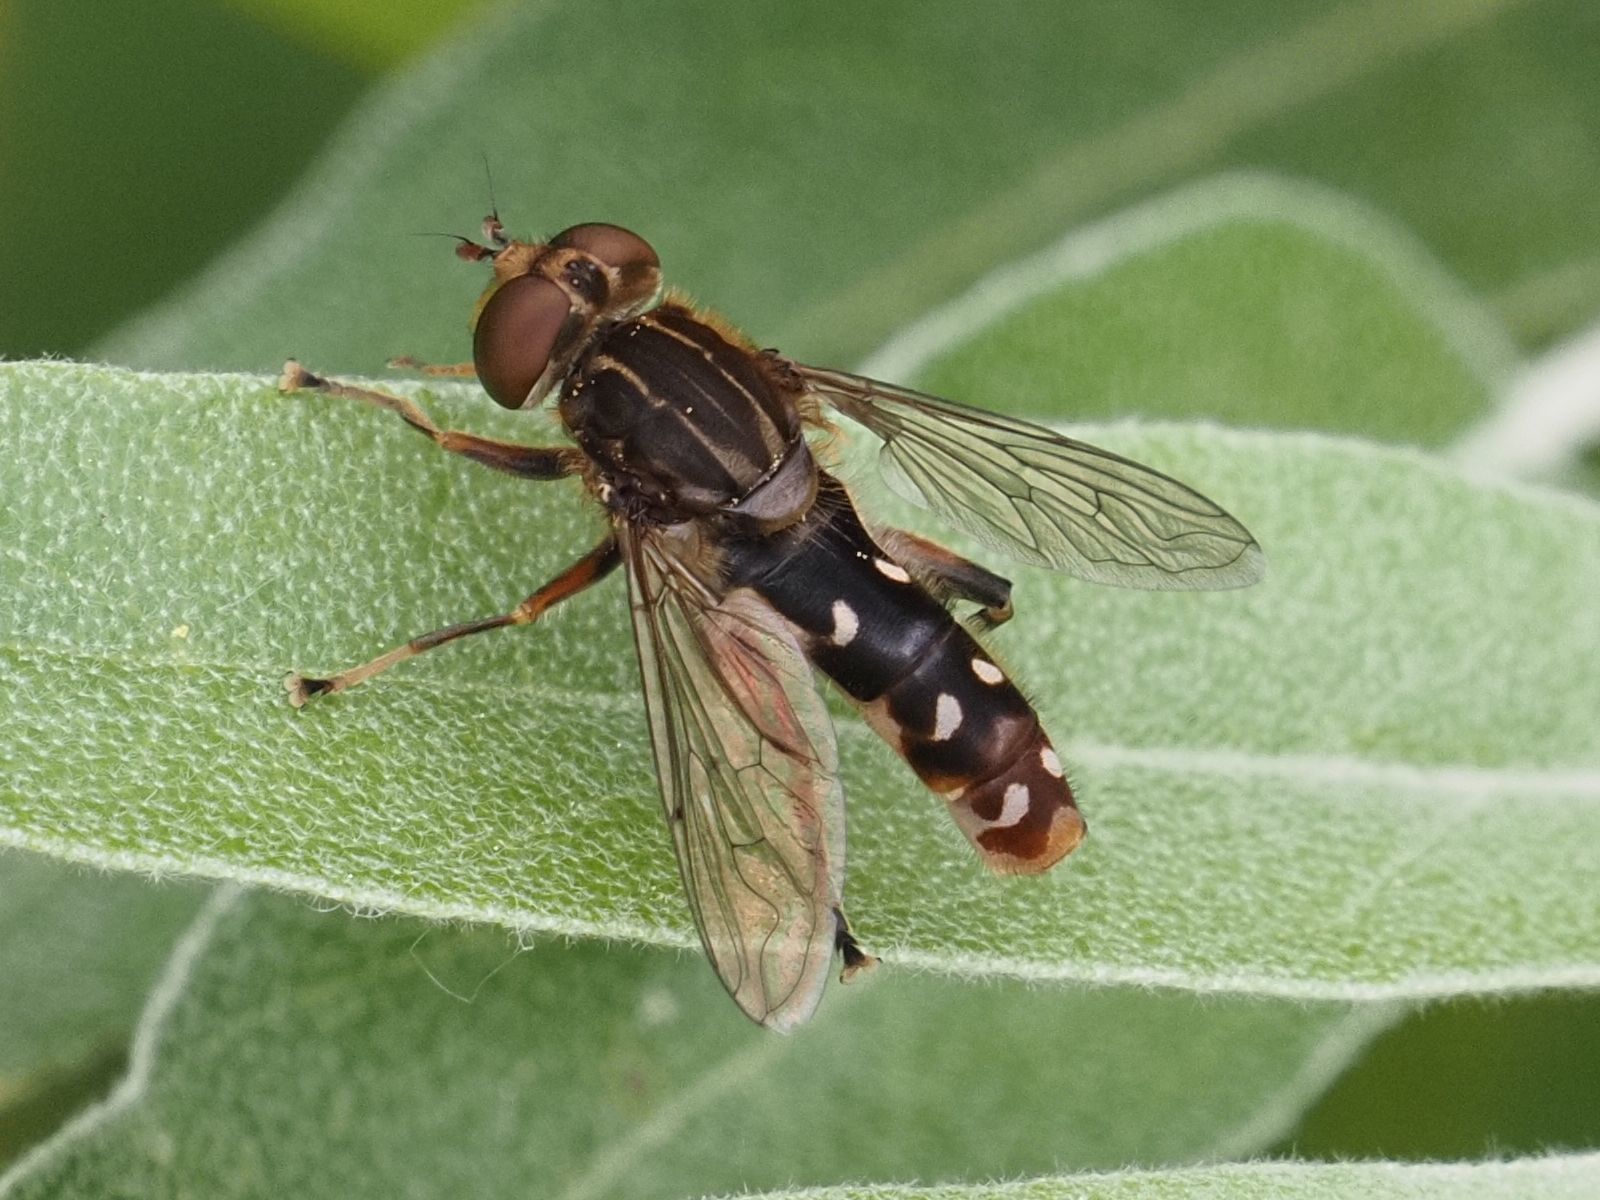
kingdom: Animalia
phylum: Arthropoda
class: Insecta
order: Diptera
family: Syrphidae
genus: Anasimyia
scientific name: Anasimyia contracta
